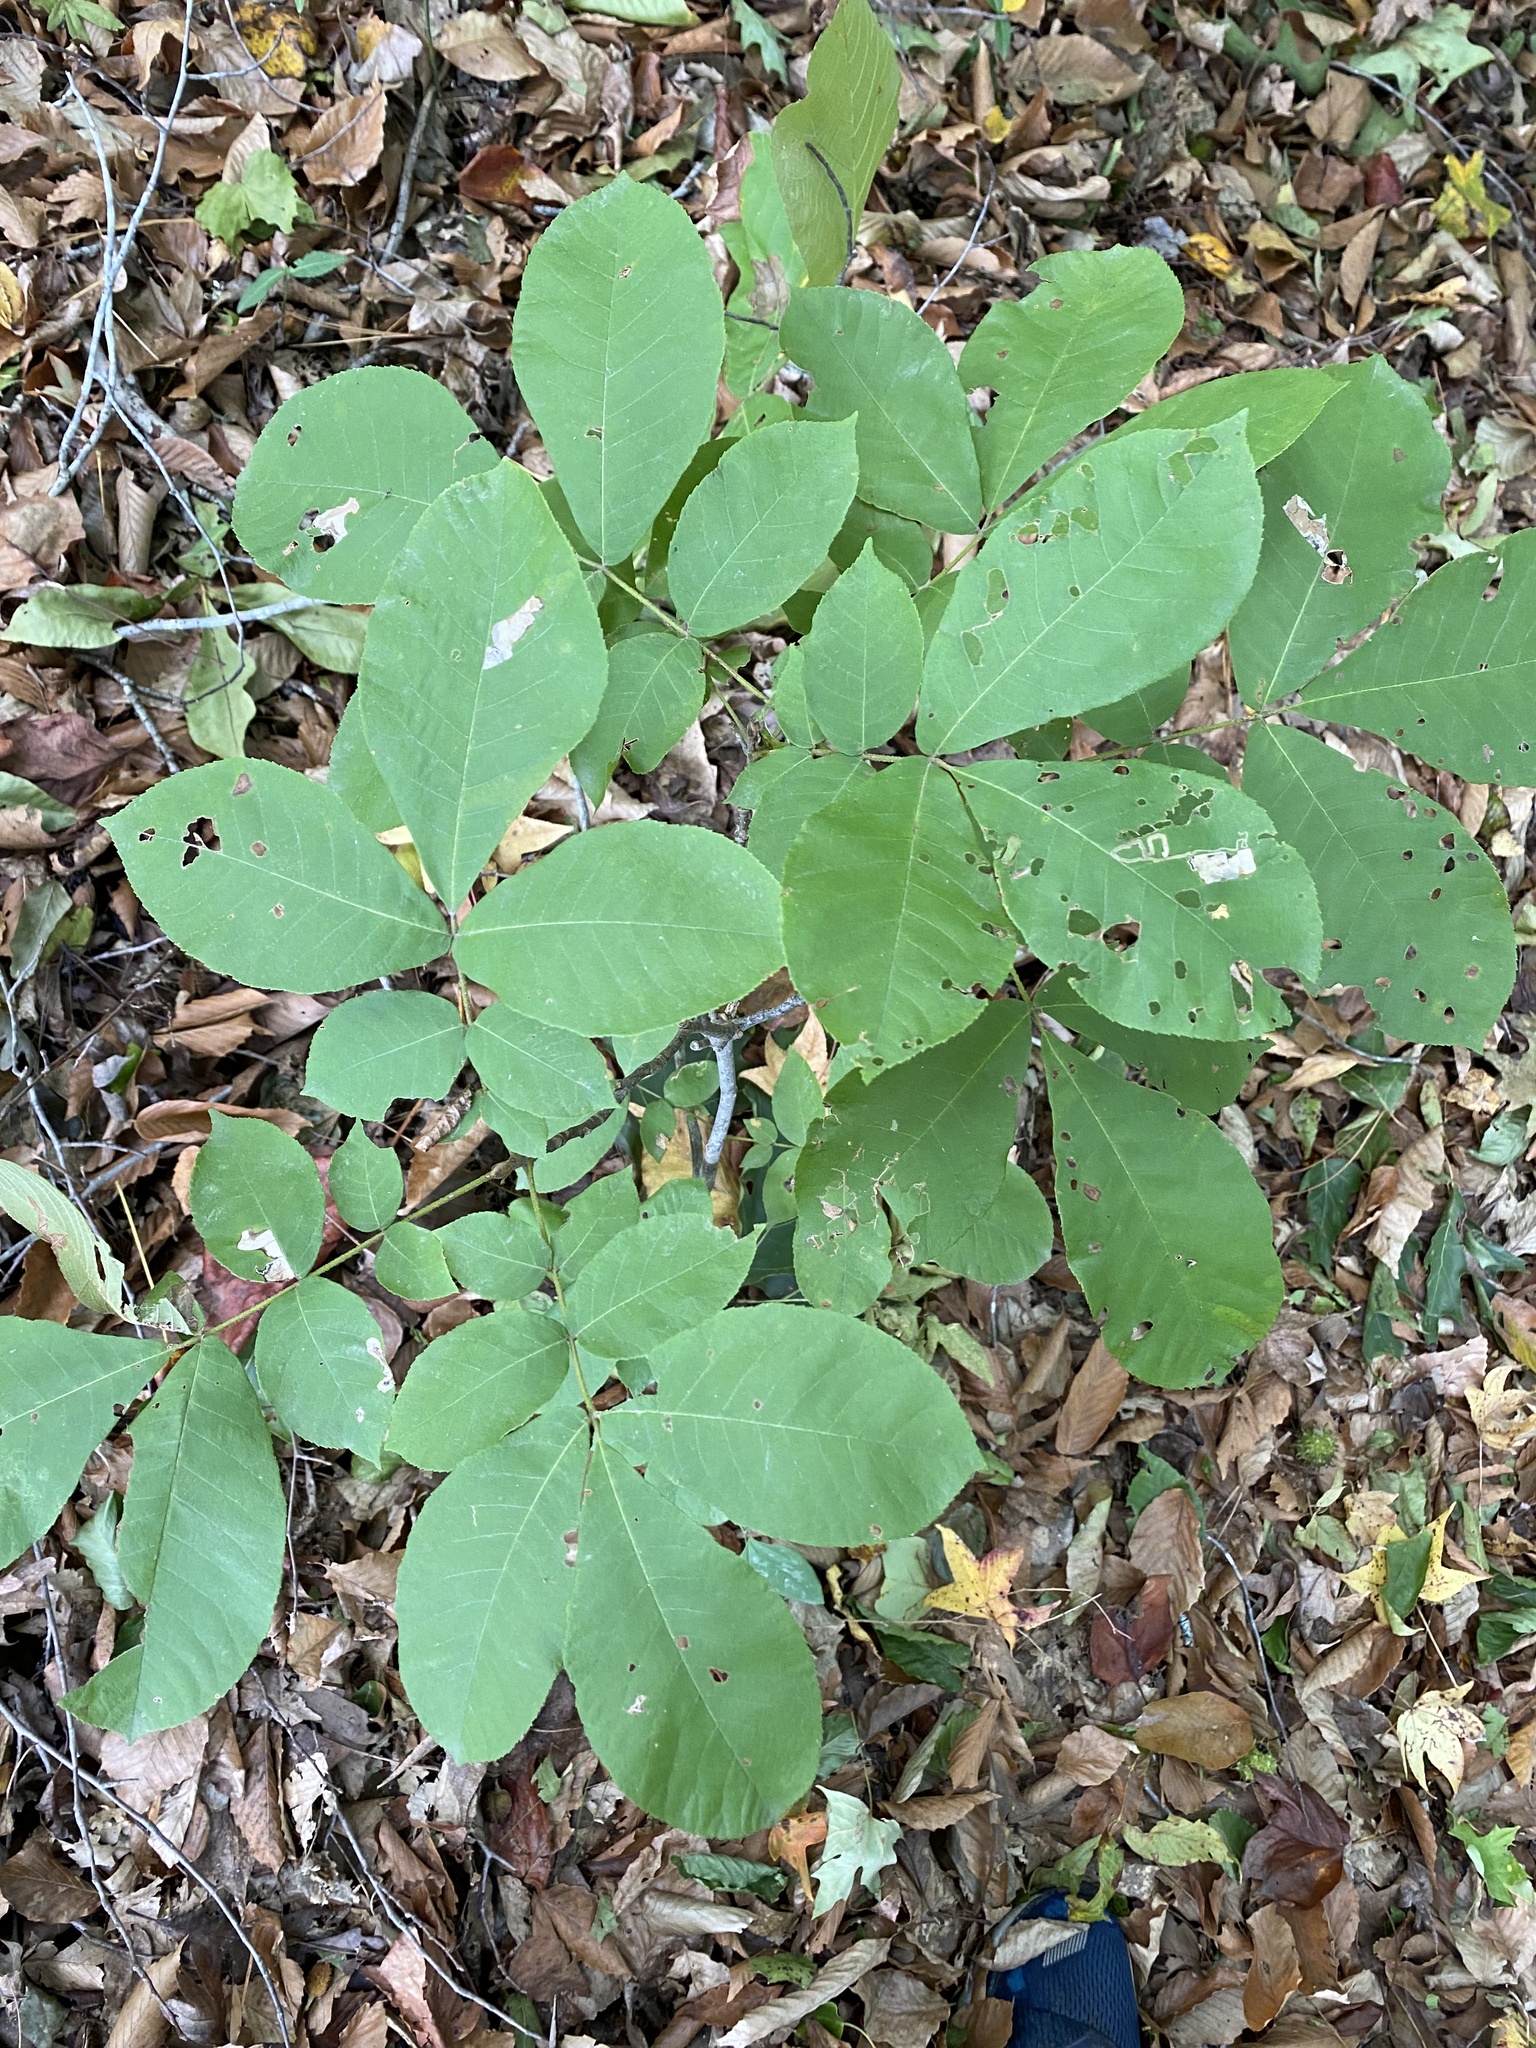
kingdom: Animalia
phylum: Arthropoda
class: Insecta
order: Lepidoptera
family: Nepticulidae
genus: Stigmella
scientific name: Stigmella caryaefoliella
